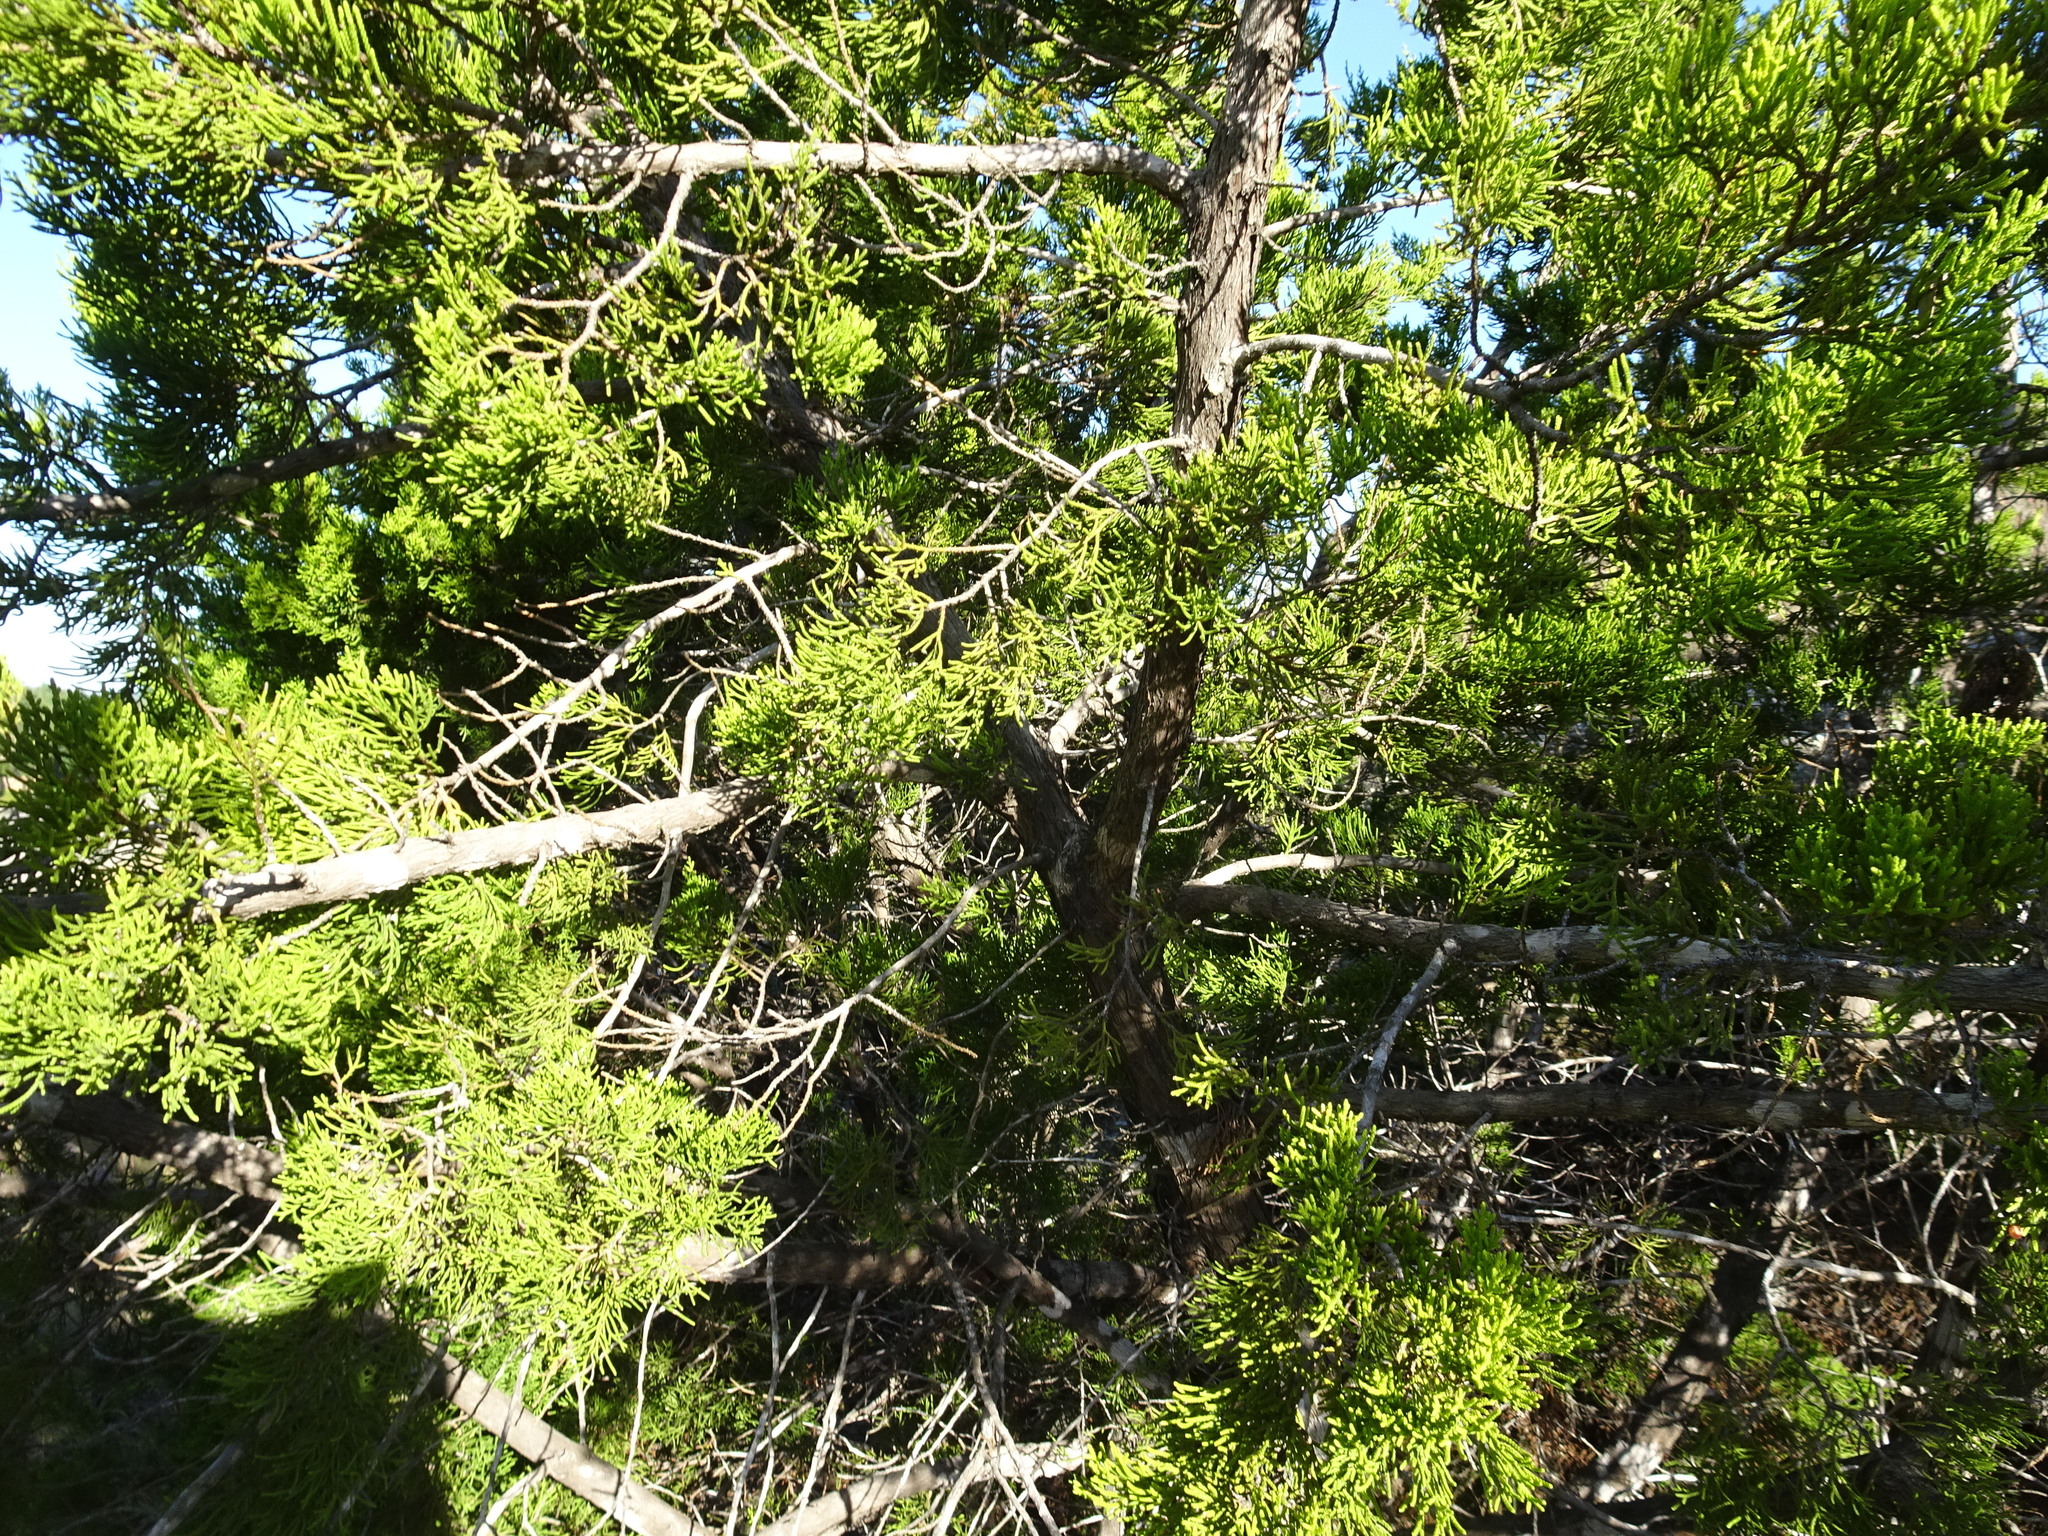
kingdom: Plantae
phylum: Tracheophyta
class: Pinopsida
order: Pinales
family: Cupressaceae
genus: Juniperus
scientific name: Juniperus ashei
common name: Mexican juniper
